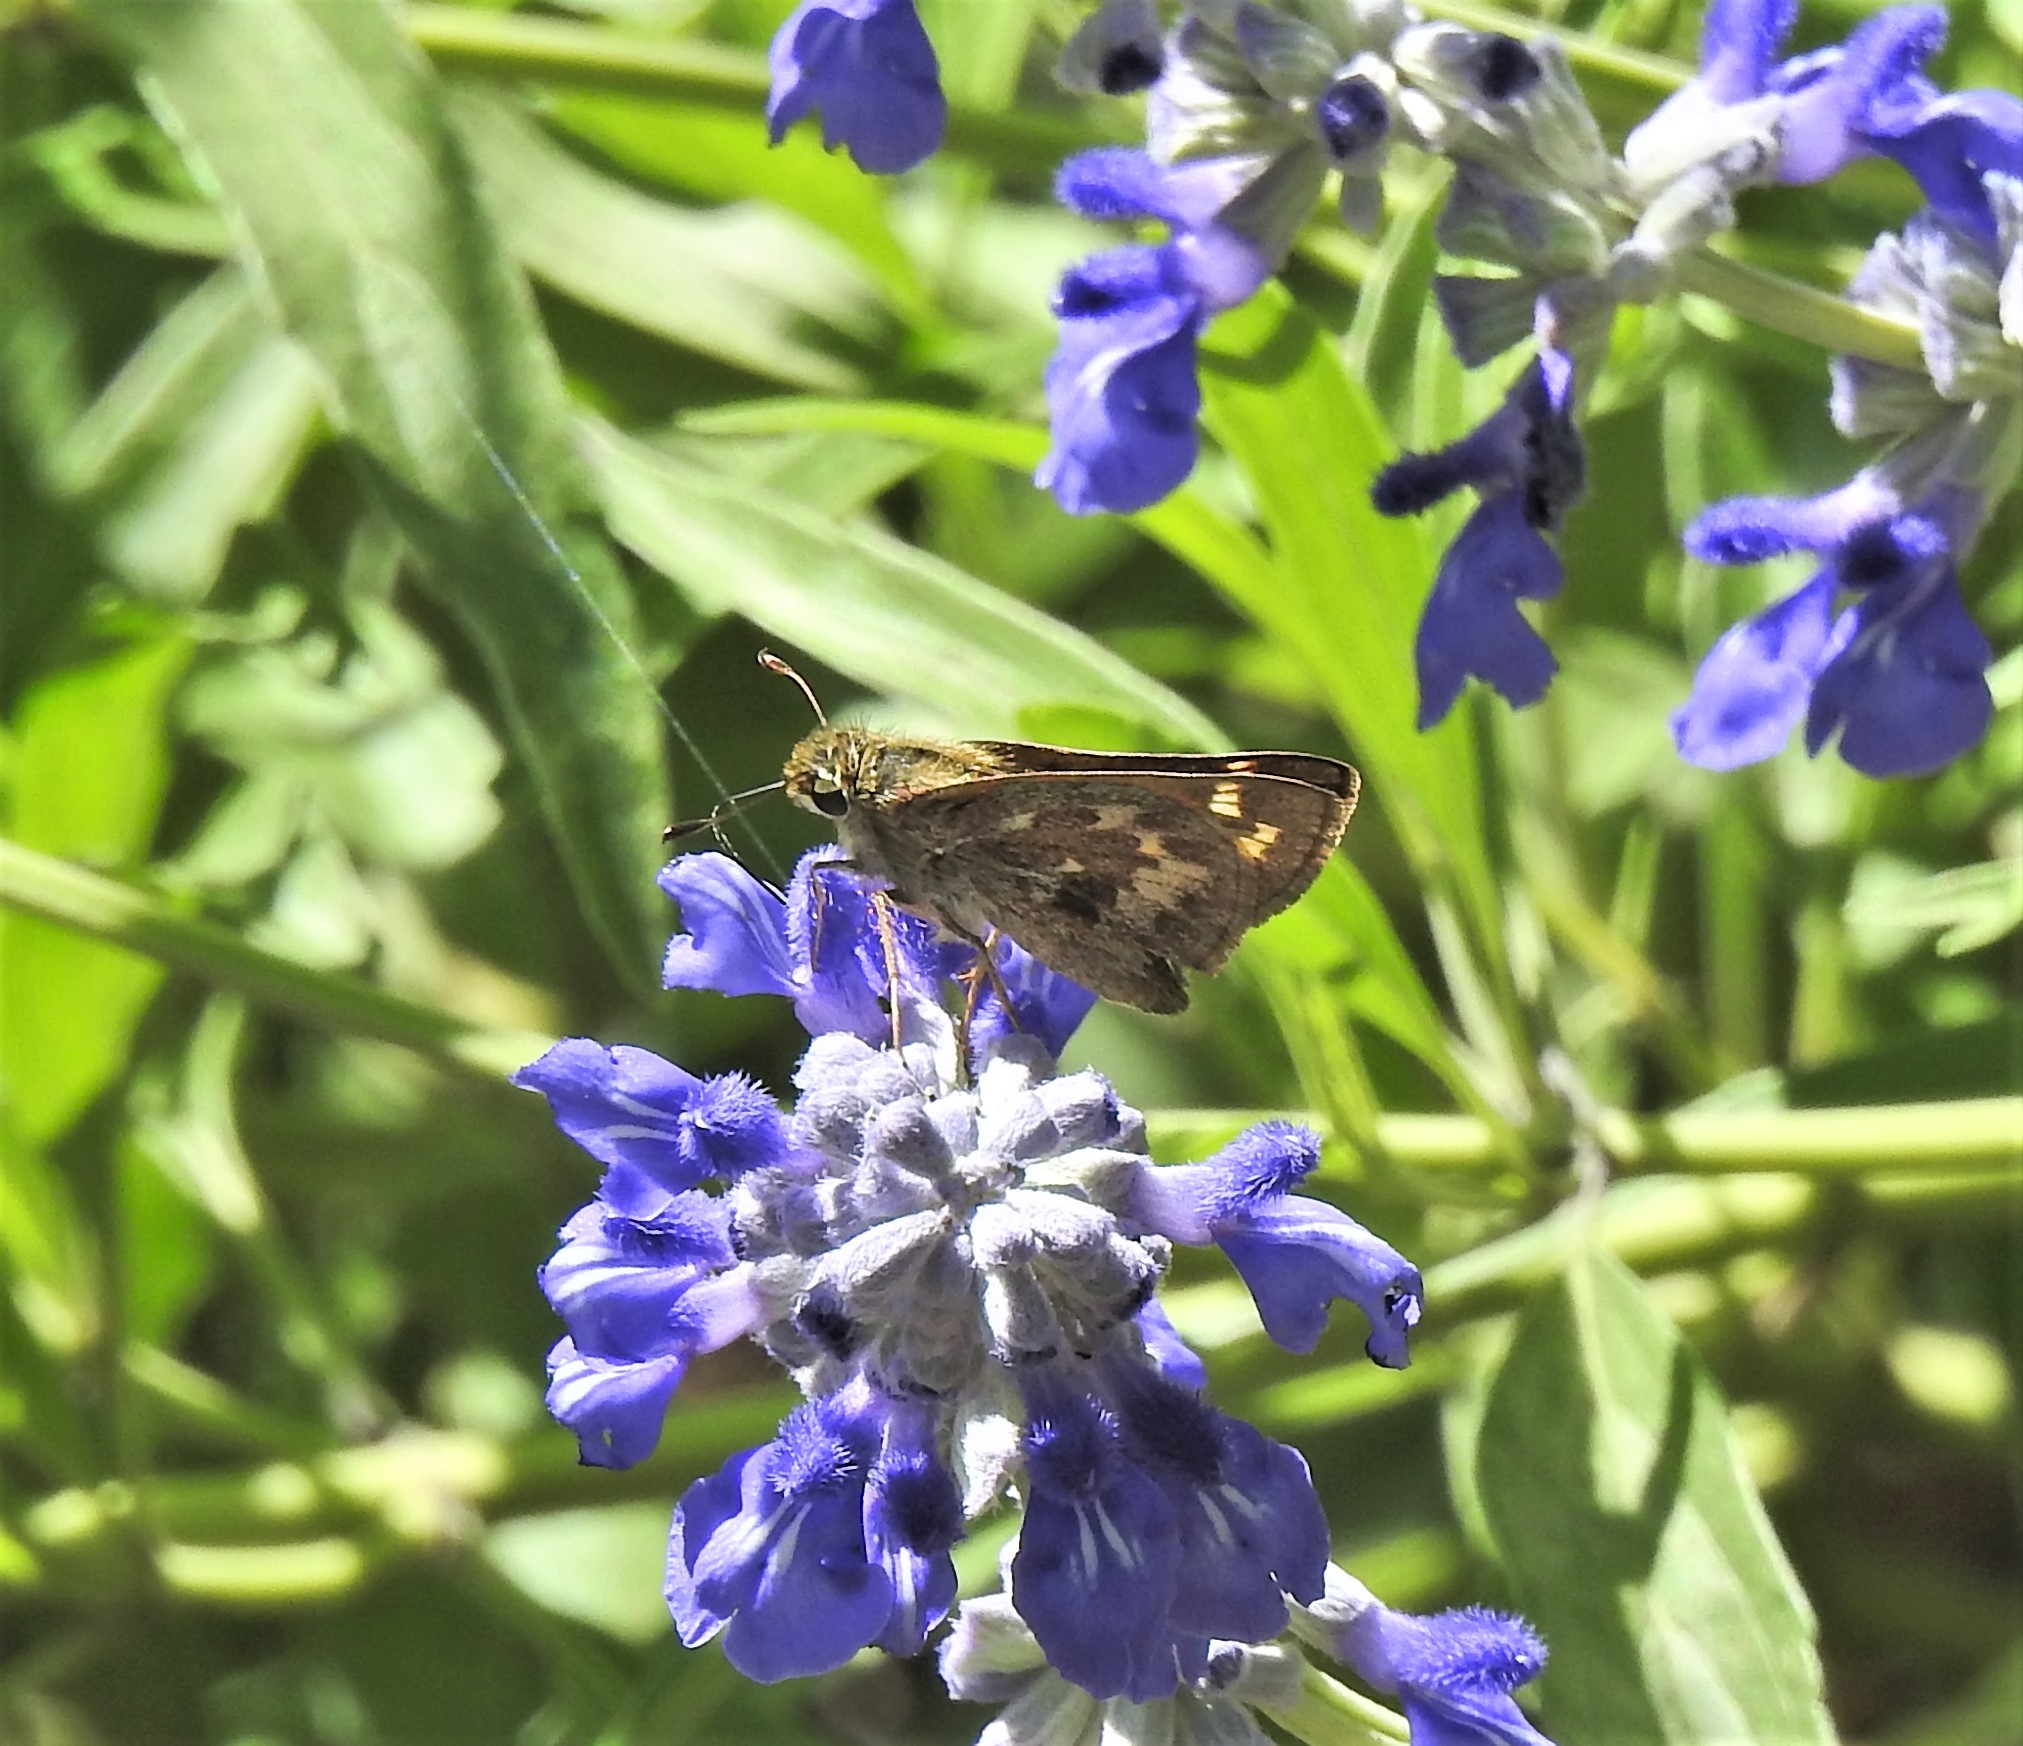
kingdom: Animalia
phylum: Arthropoda
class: Insecta
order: Lepidoptera
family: Hesperiidae
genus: Atalopedes
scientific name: Atalopedes
